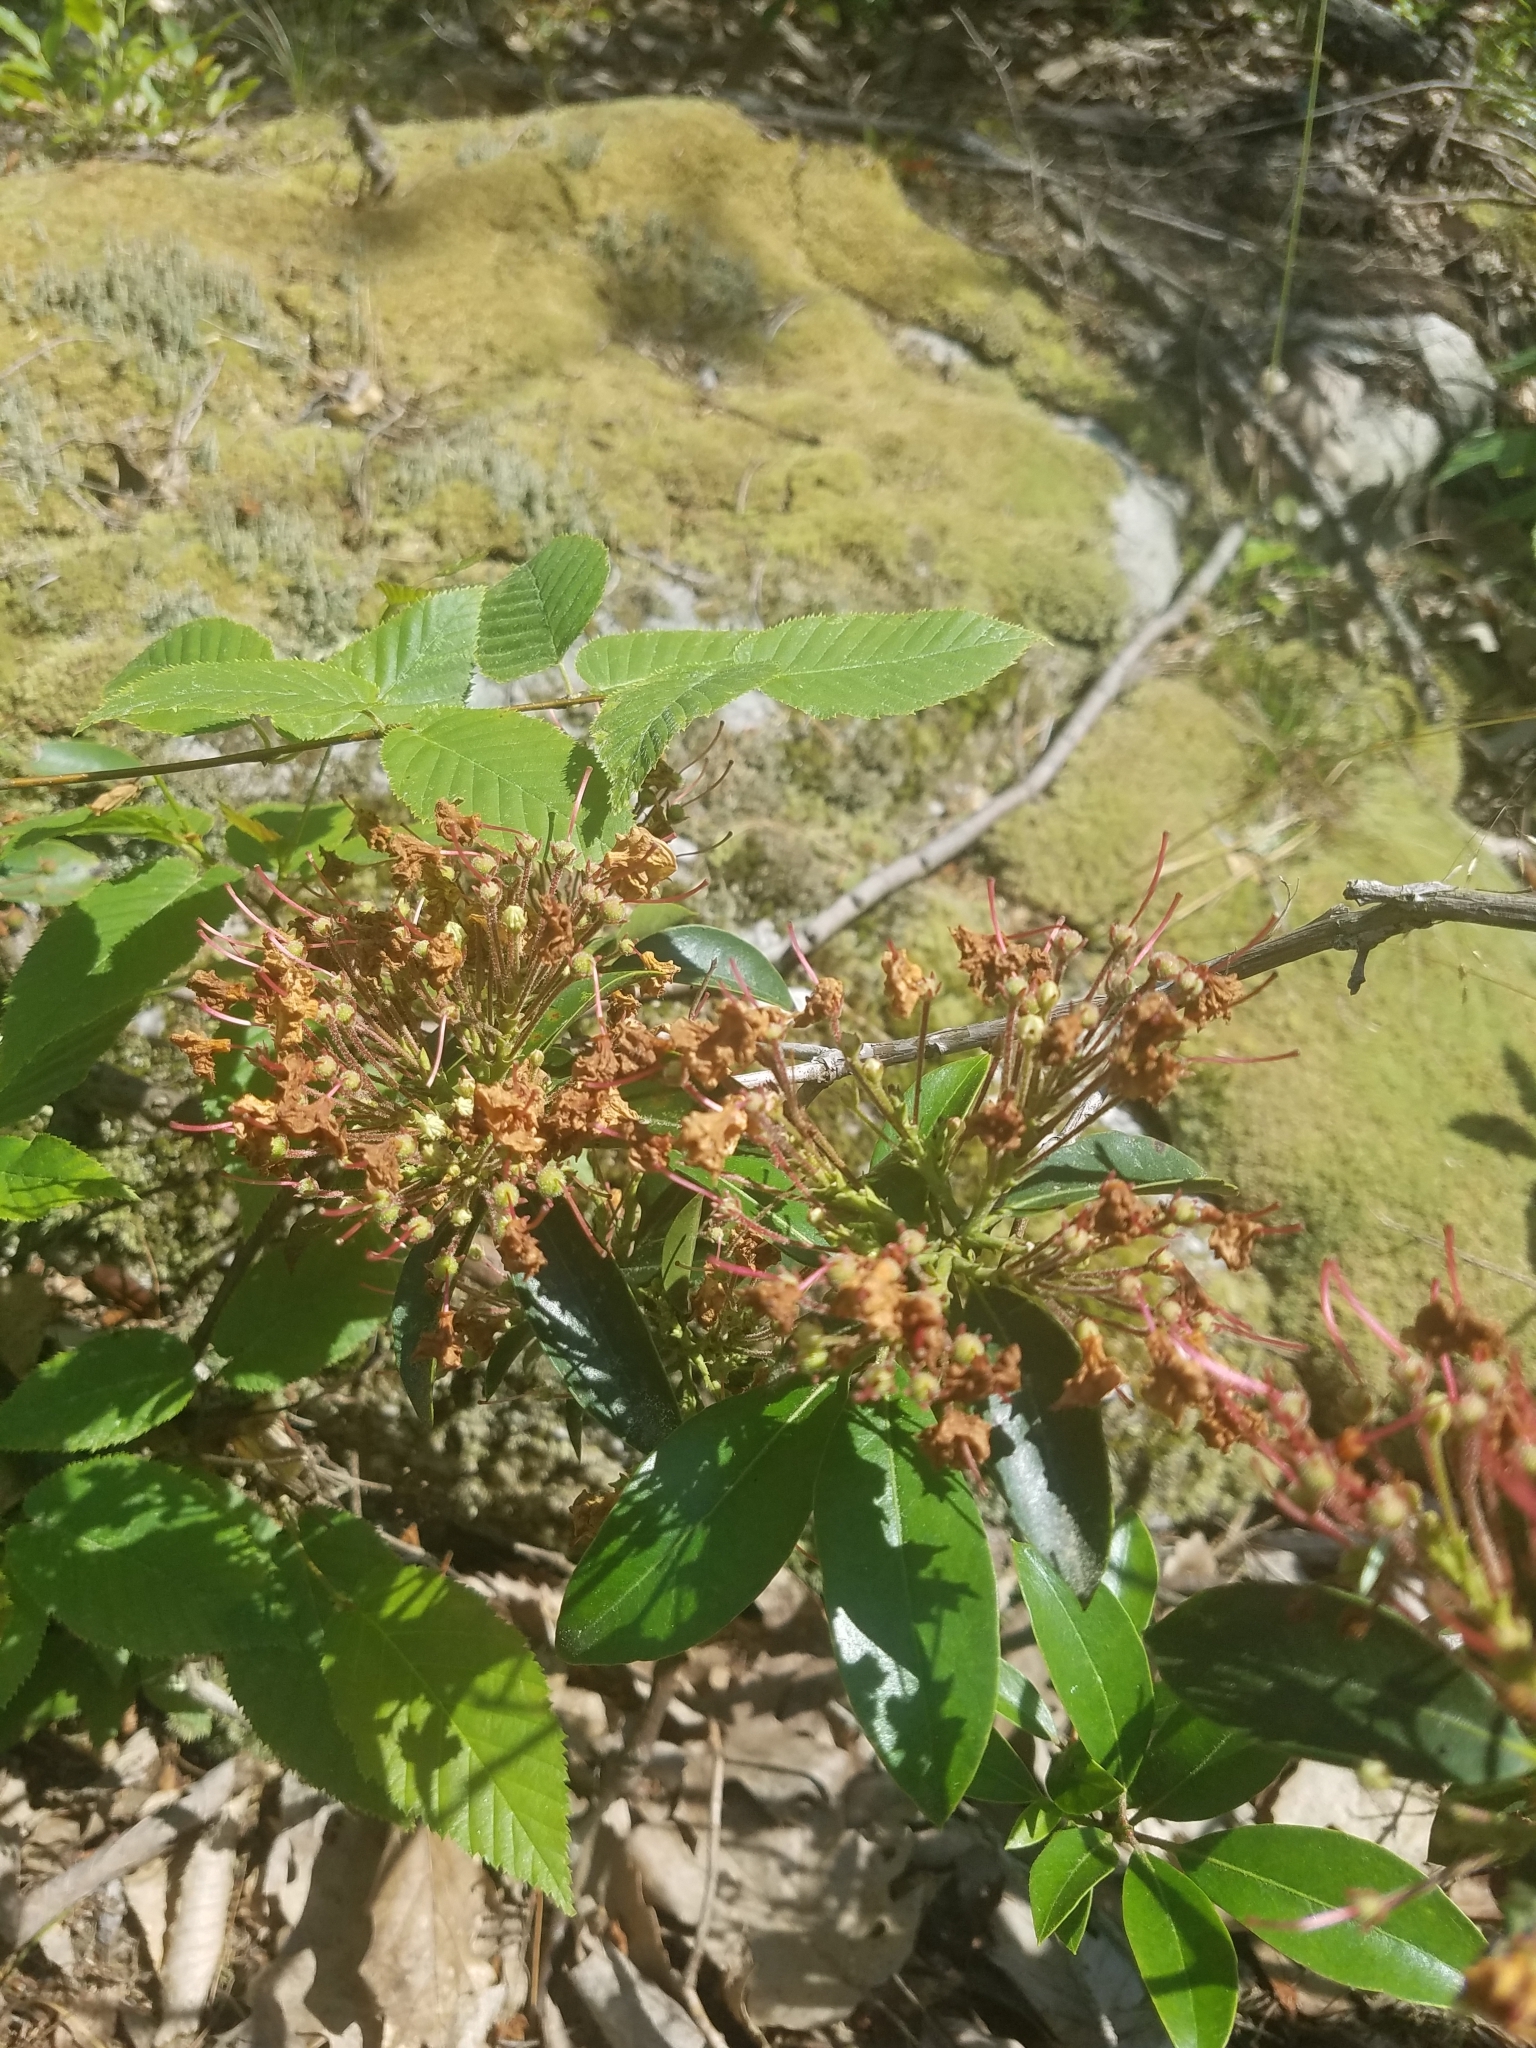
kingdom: Plantae
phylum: Tracheophyta
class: Magnoliopsida
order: Ericales
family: Ericaceae
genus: Kalmia
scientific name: Kalmia latifolia
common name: Mountain-laurel
